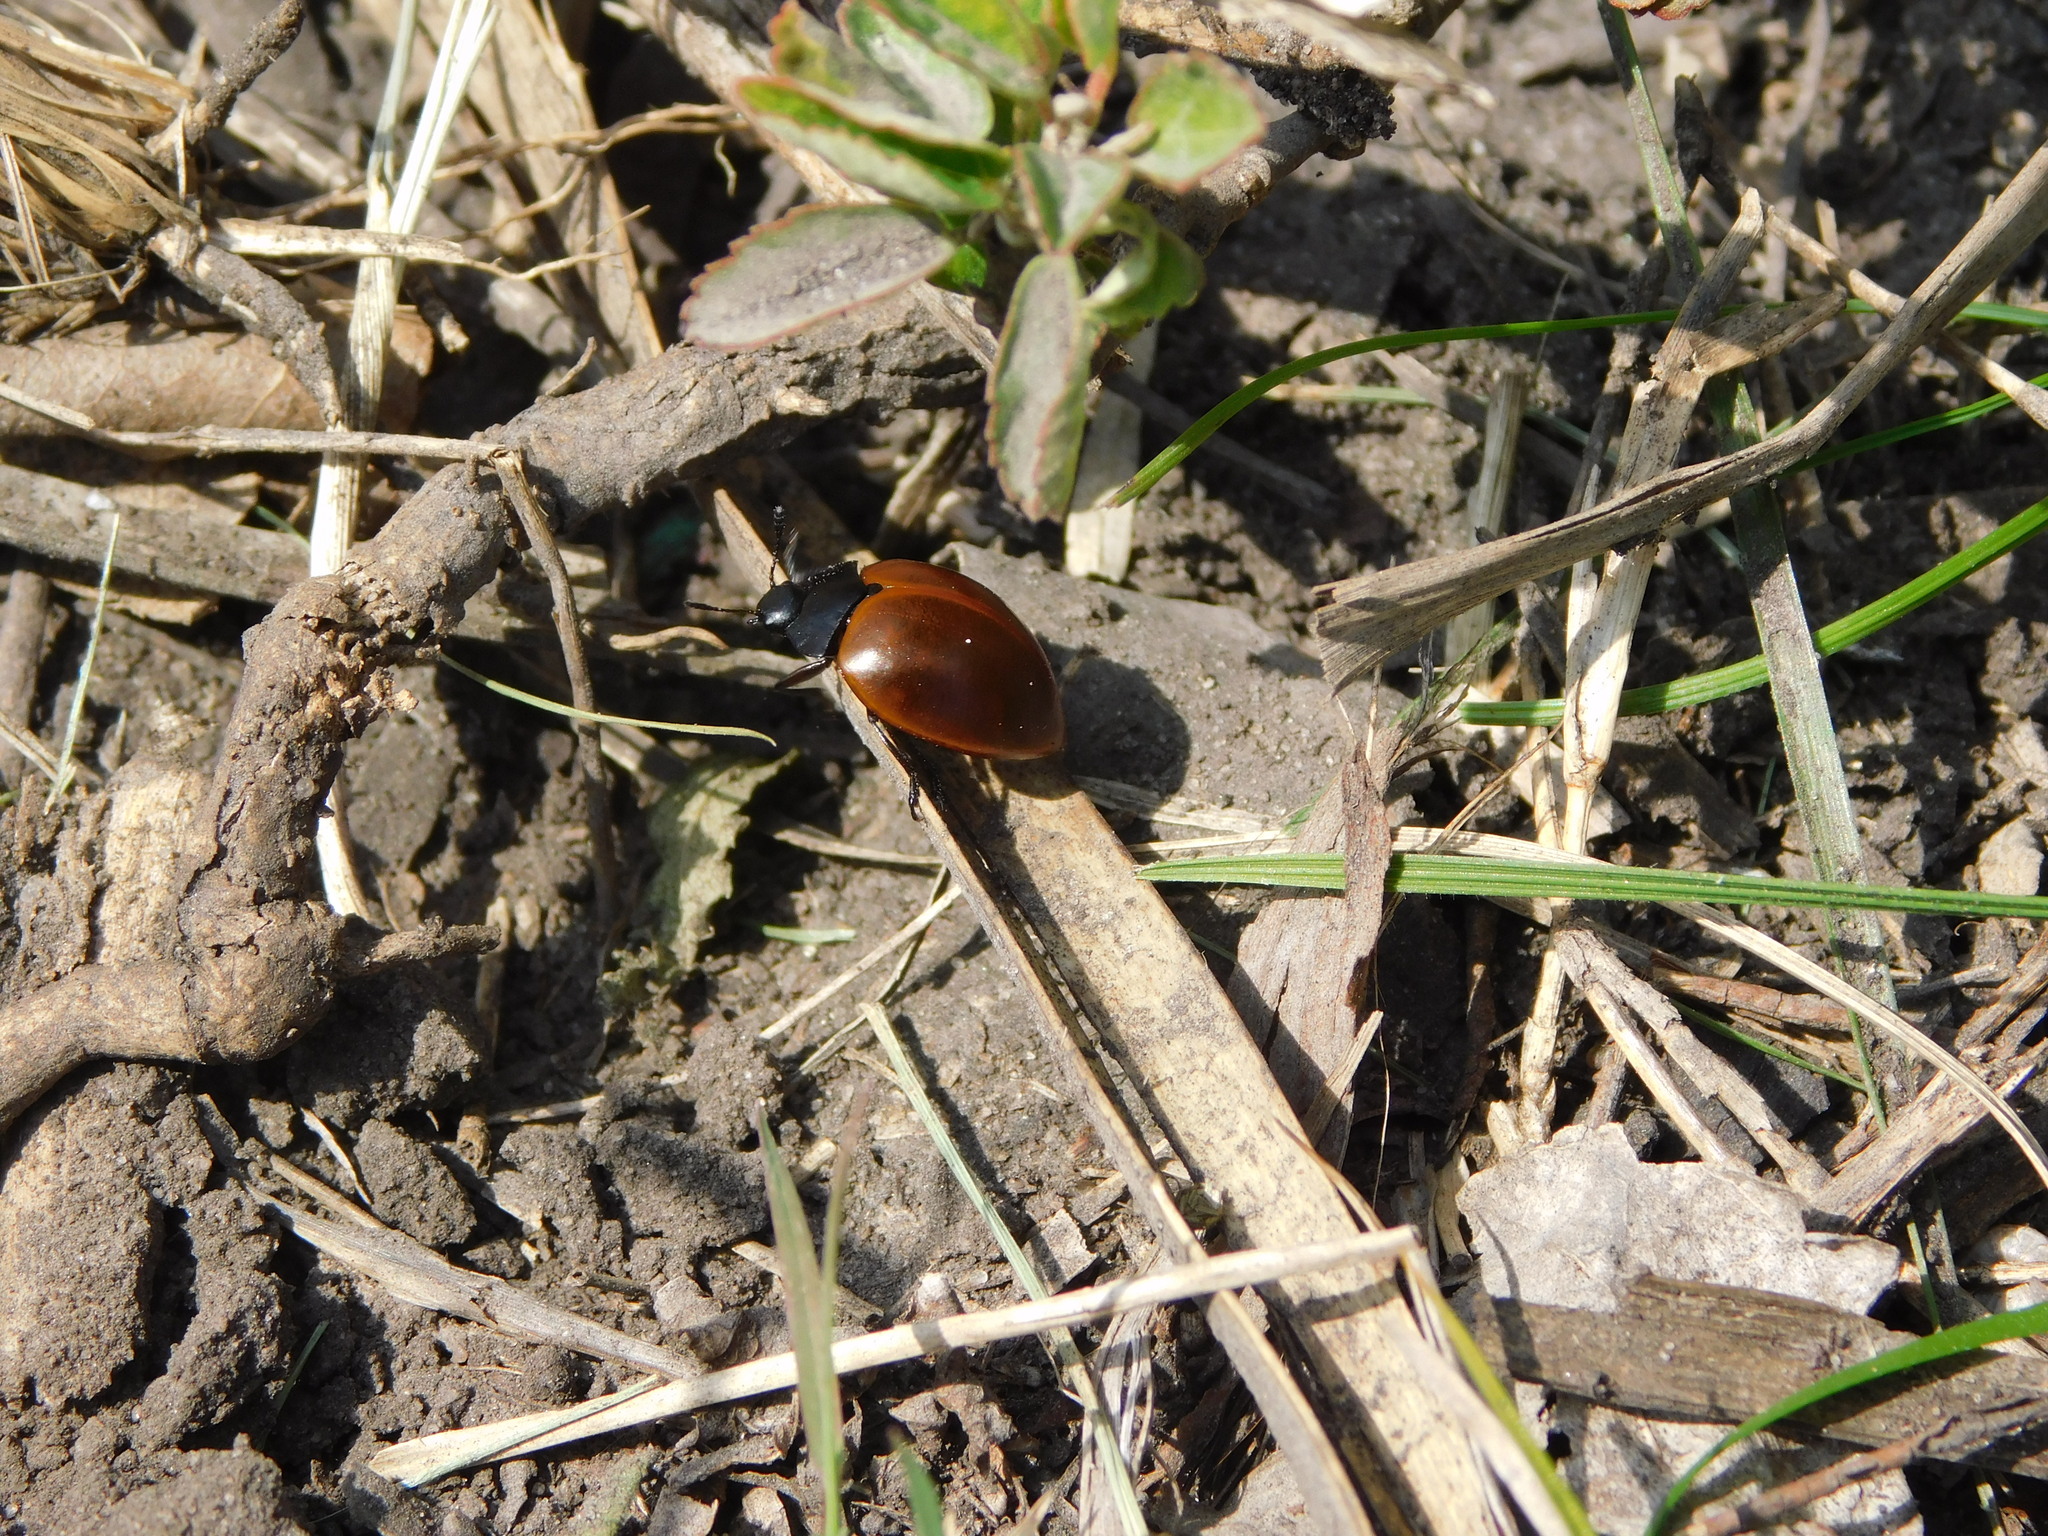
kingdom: Animalia
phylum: Arthropoda
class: Insecta
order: Coleoptera
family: Erotylidae
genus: Aegithus
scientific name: Aegithus clavicornis
